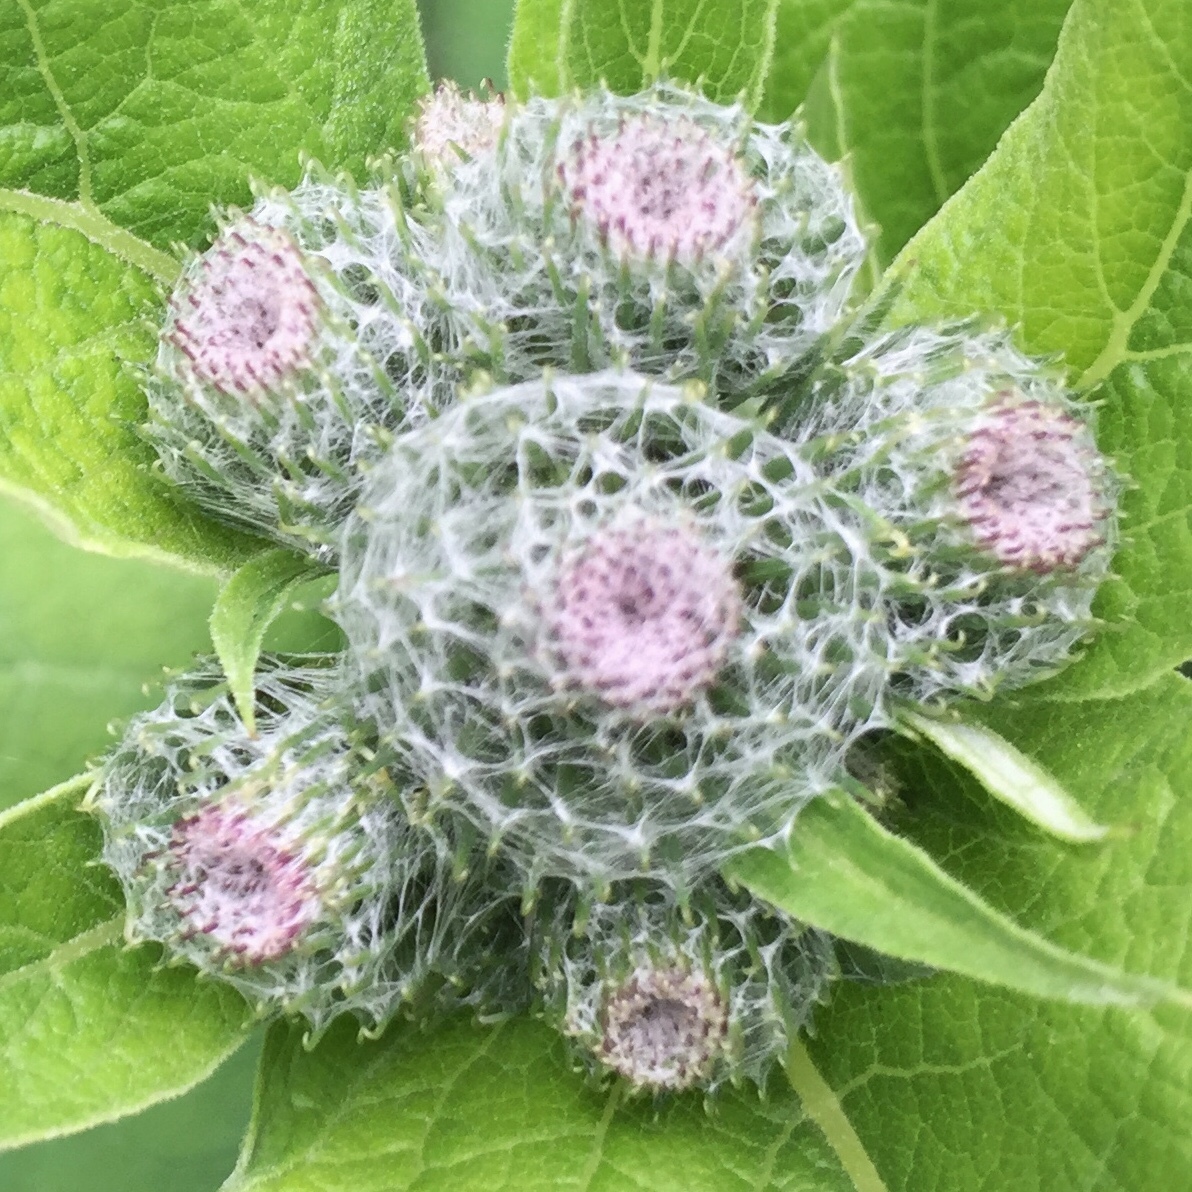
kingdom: Plantae
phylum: Tracheophyta
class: Magnoliopsida
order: Asterales
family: Asteraceae
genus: Arctium
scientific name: Arctium tomentosum
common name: Woolly burdock
